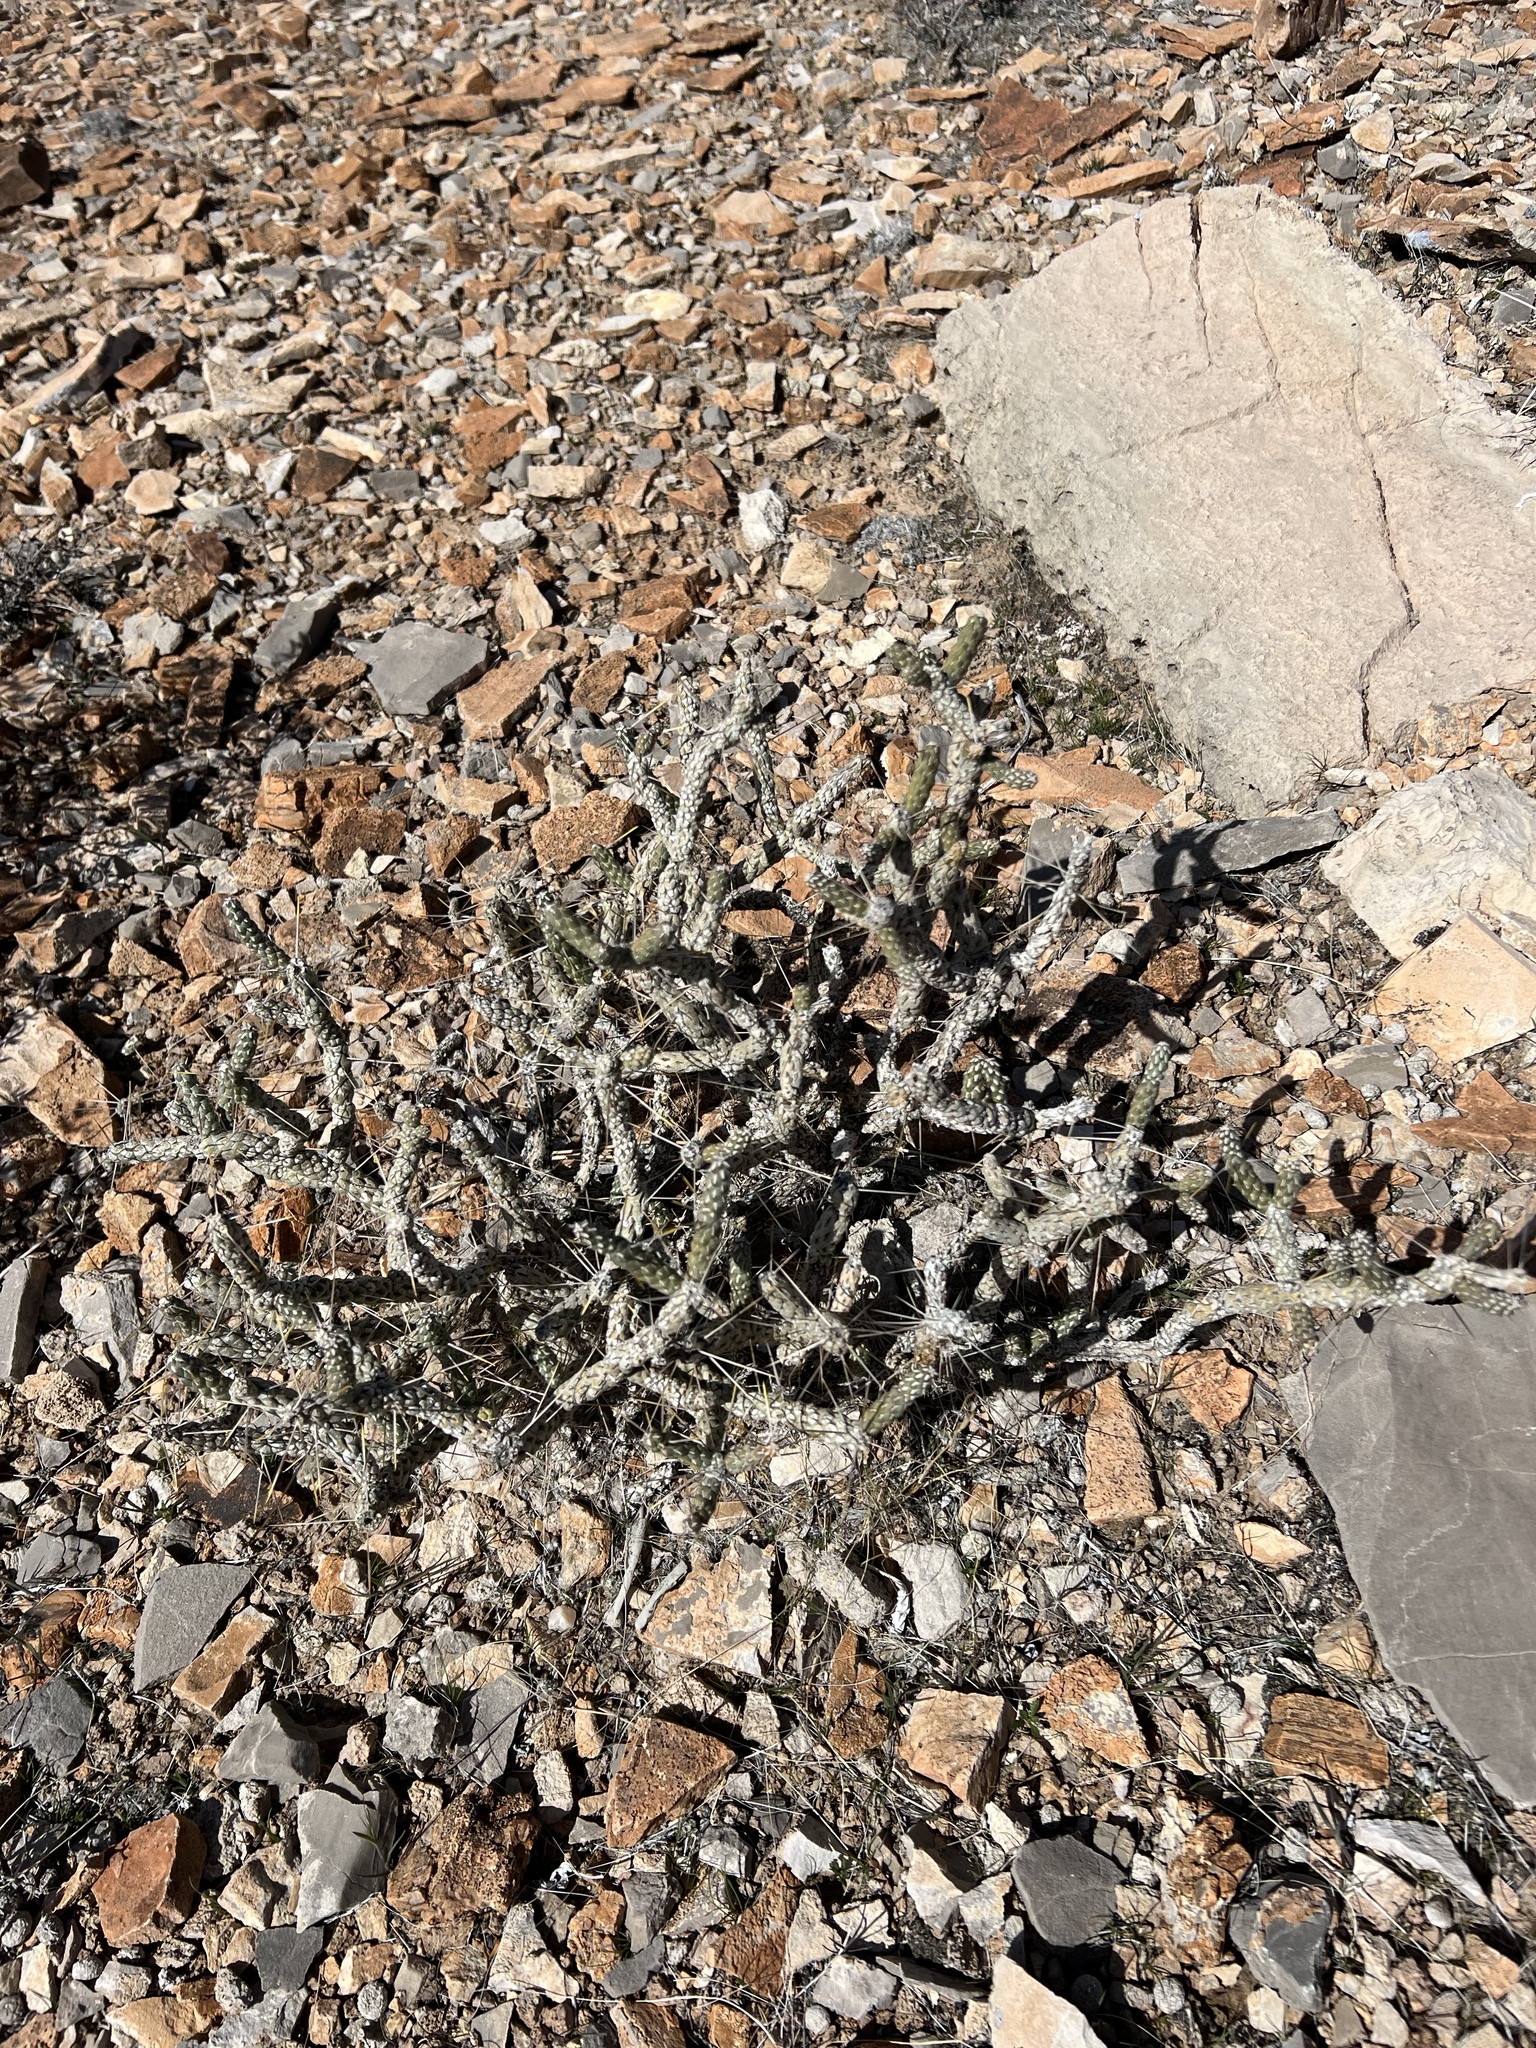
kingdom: Plantae
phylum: Tracheophyta
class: Magnoliopsida
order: Caryophyllales
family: Cactaceae
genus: Cylindropuntia
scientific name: Cylindropuntia ramosissima
